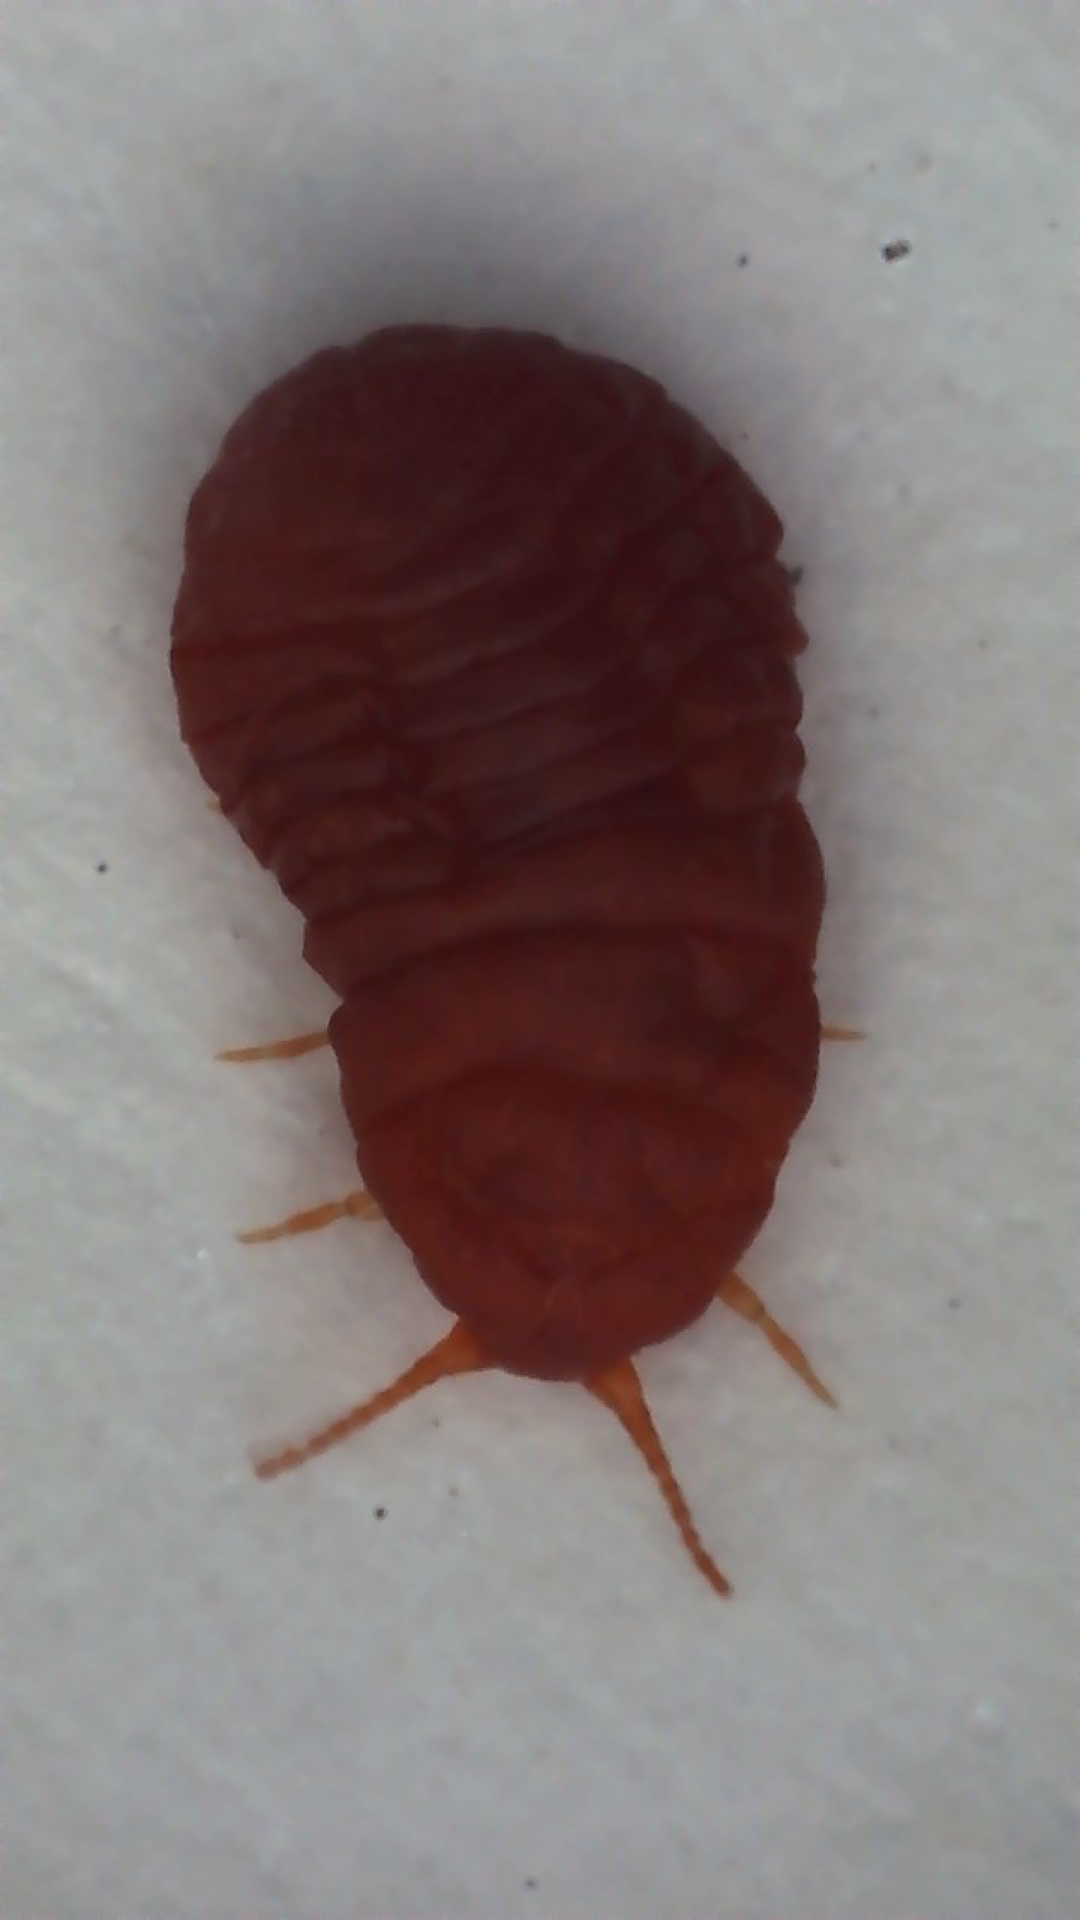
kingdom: Animalia
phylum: Arthropoda
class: Insecta
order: Hemiptera
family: Margarodidae
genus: Neosteingelia
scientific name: Neosteingelia texana
